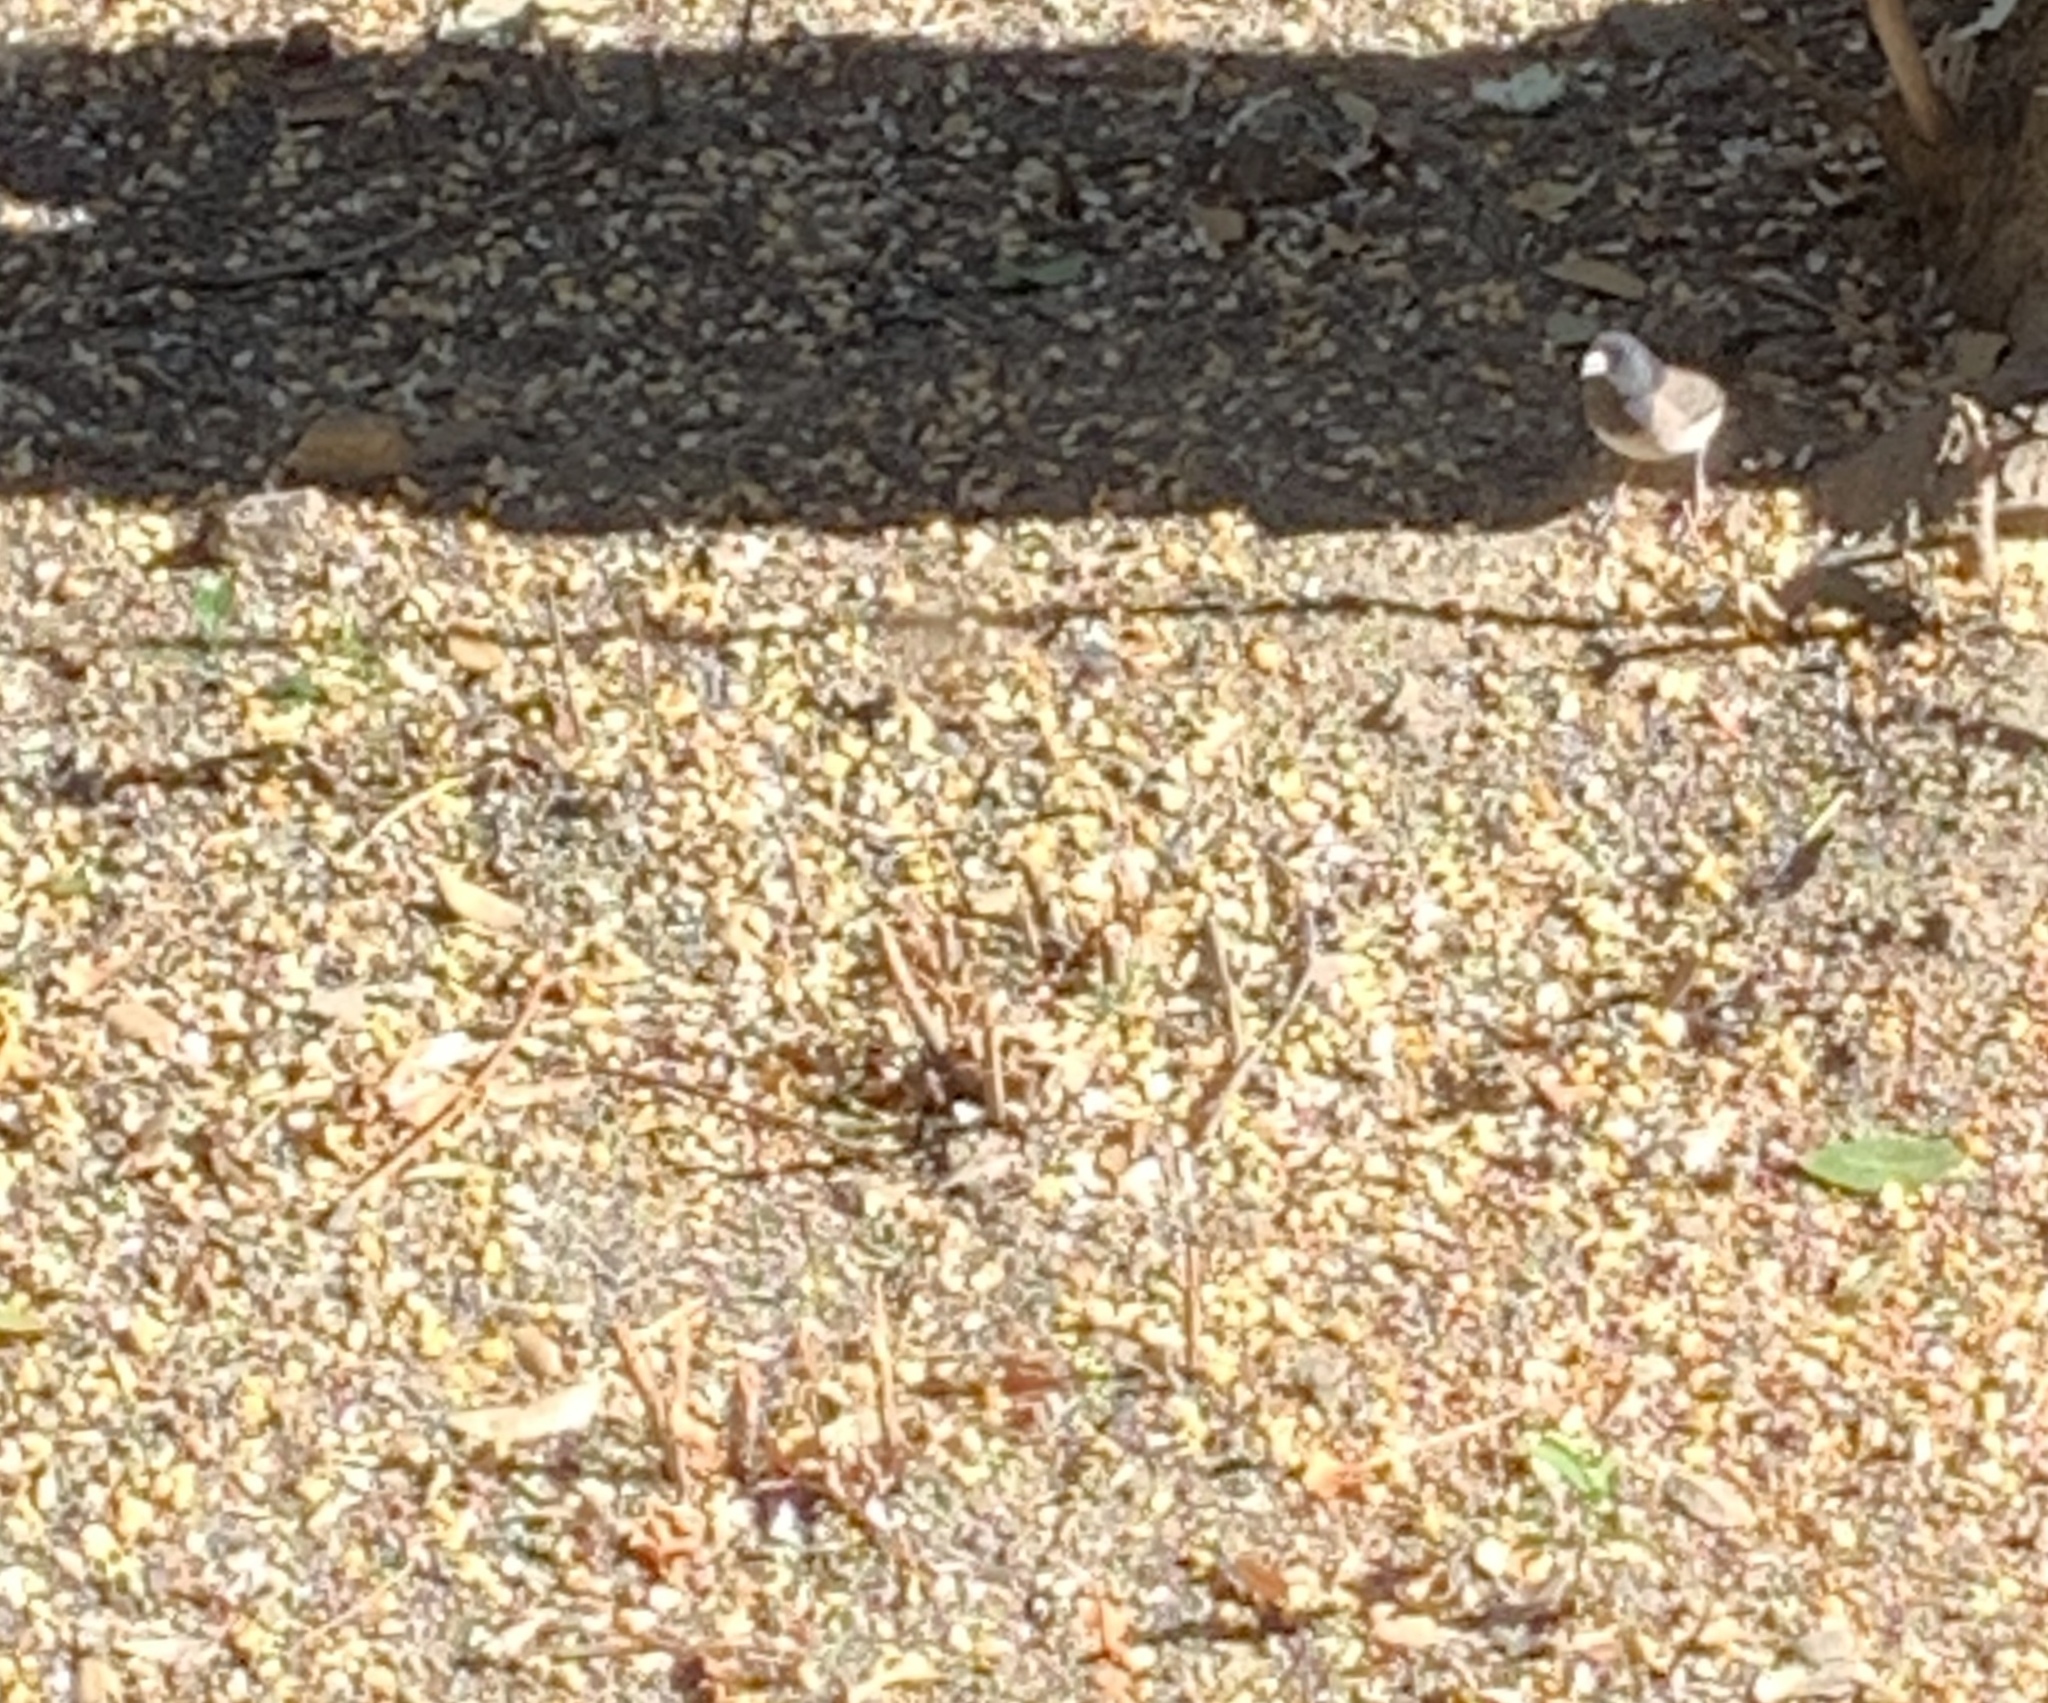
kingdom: Animalia
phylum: Chordata
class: Aves
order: Passeriformes
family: Passerellidae
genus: Junco
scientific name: Junco hyemalis
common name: Dark-eyed junco
